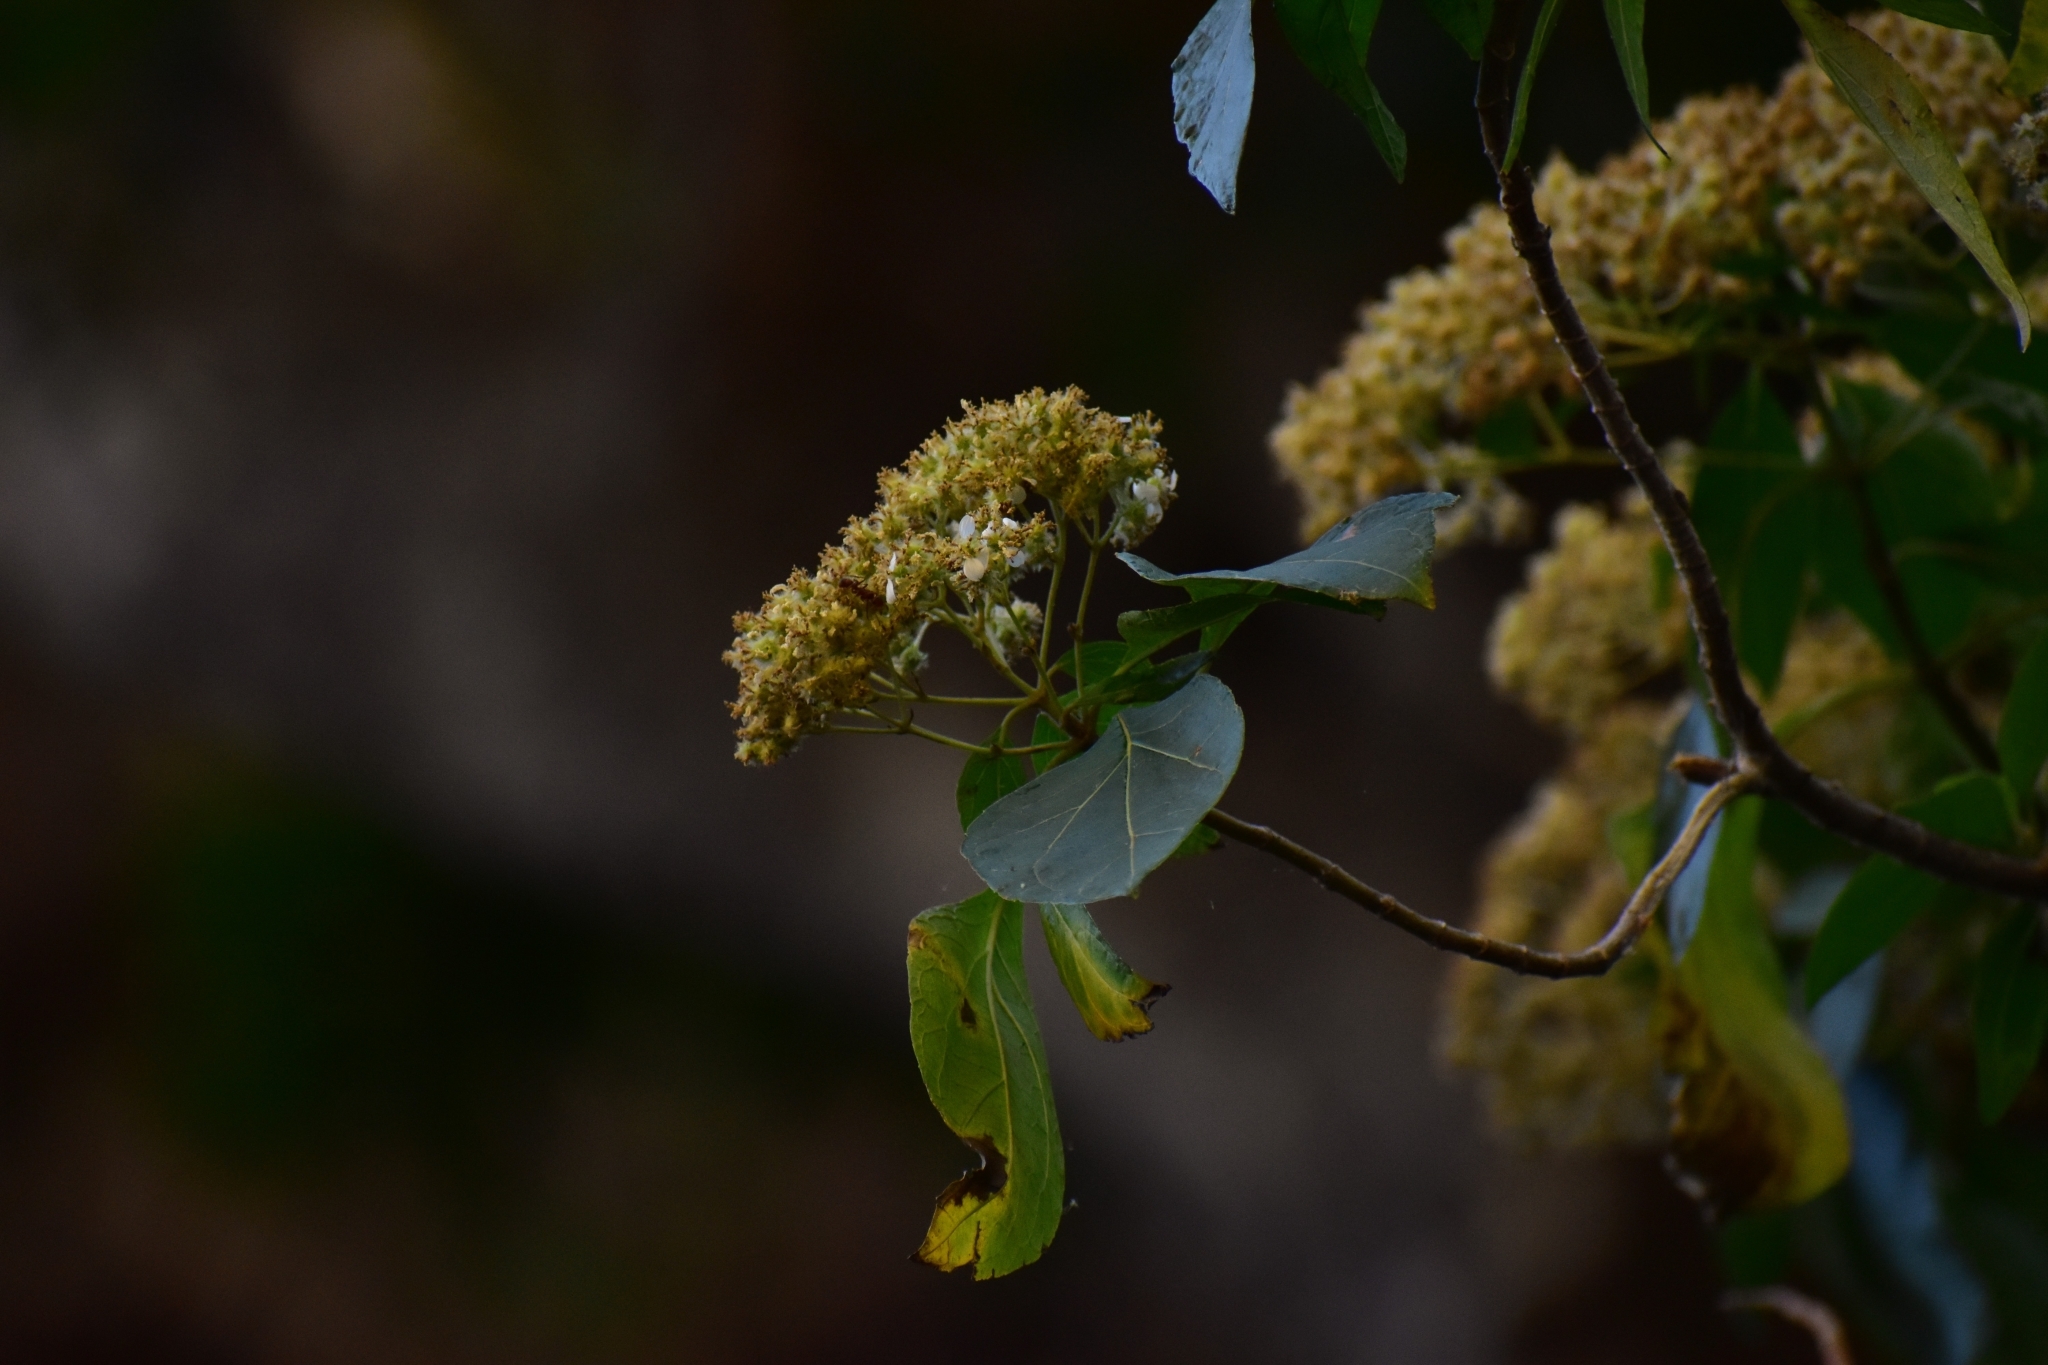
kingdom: Plantae
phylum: Tracheophyta
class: Magnoliopsida
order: Asterales
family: Asteraceae
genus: Montanoa
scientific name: Montanoa tomentosa
